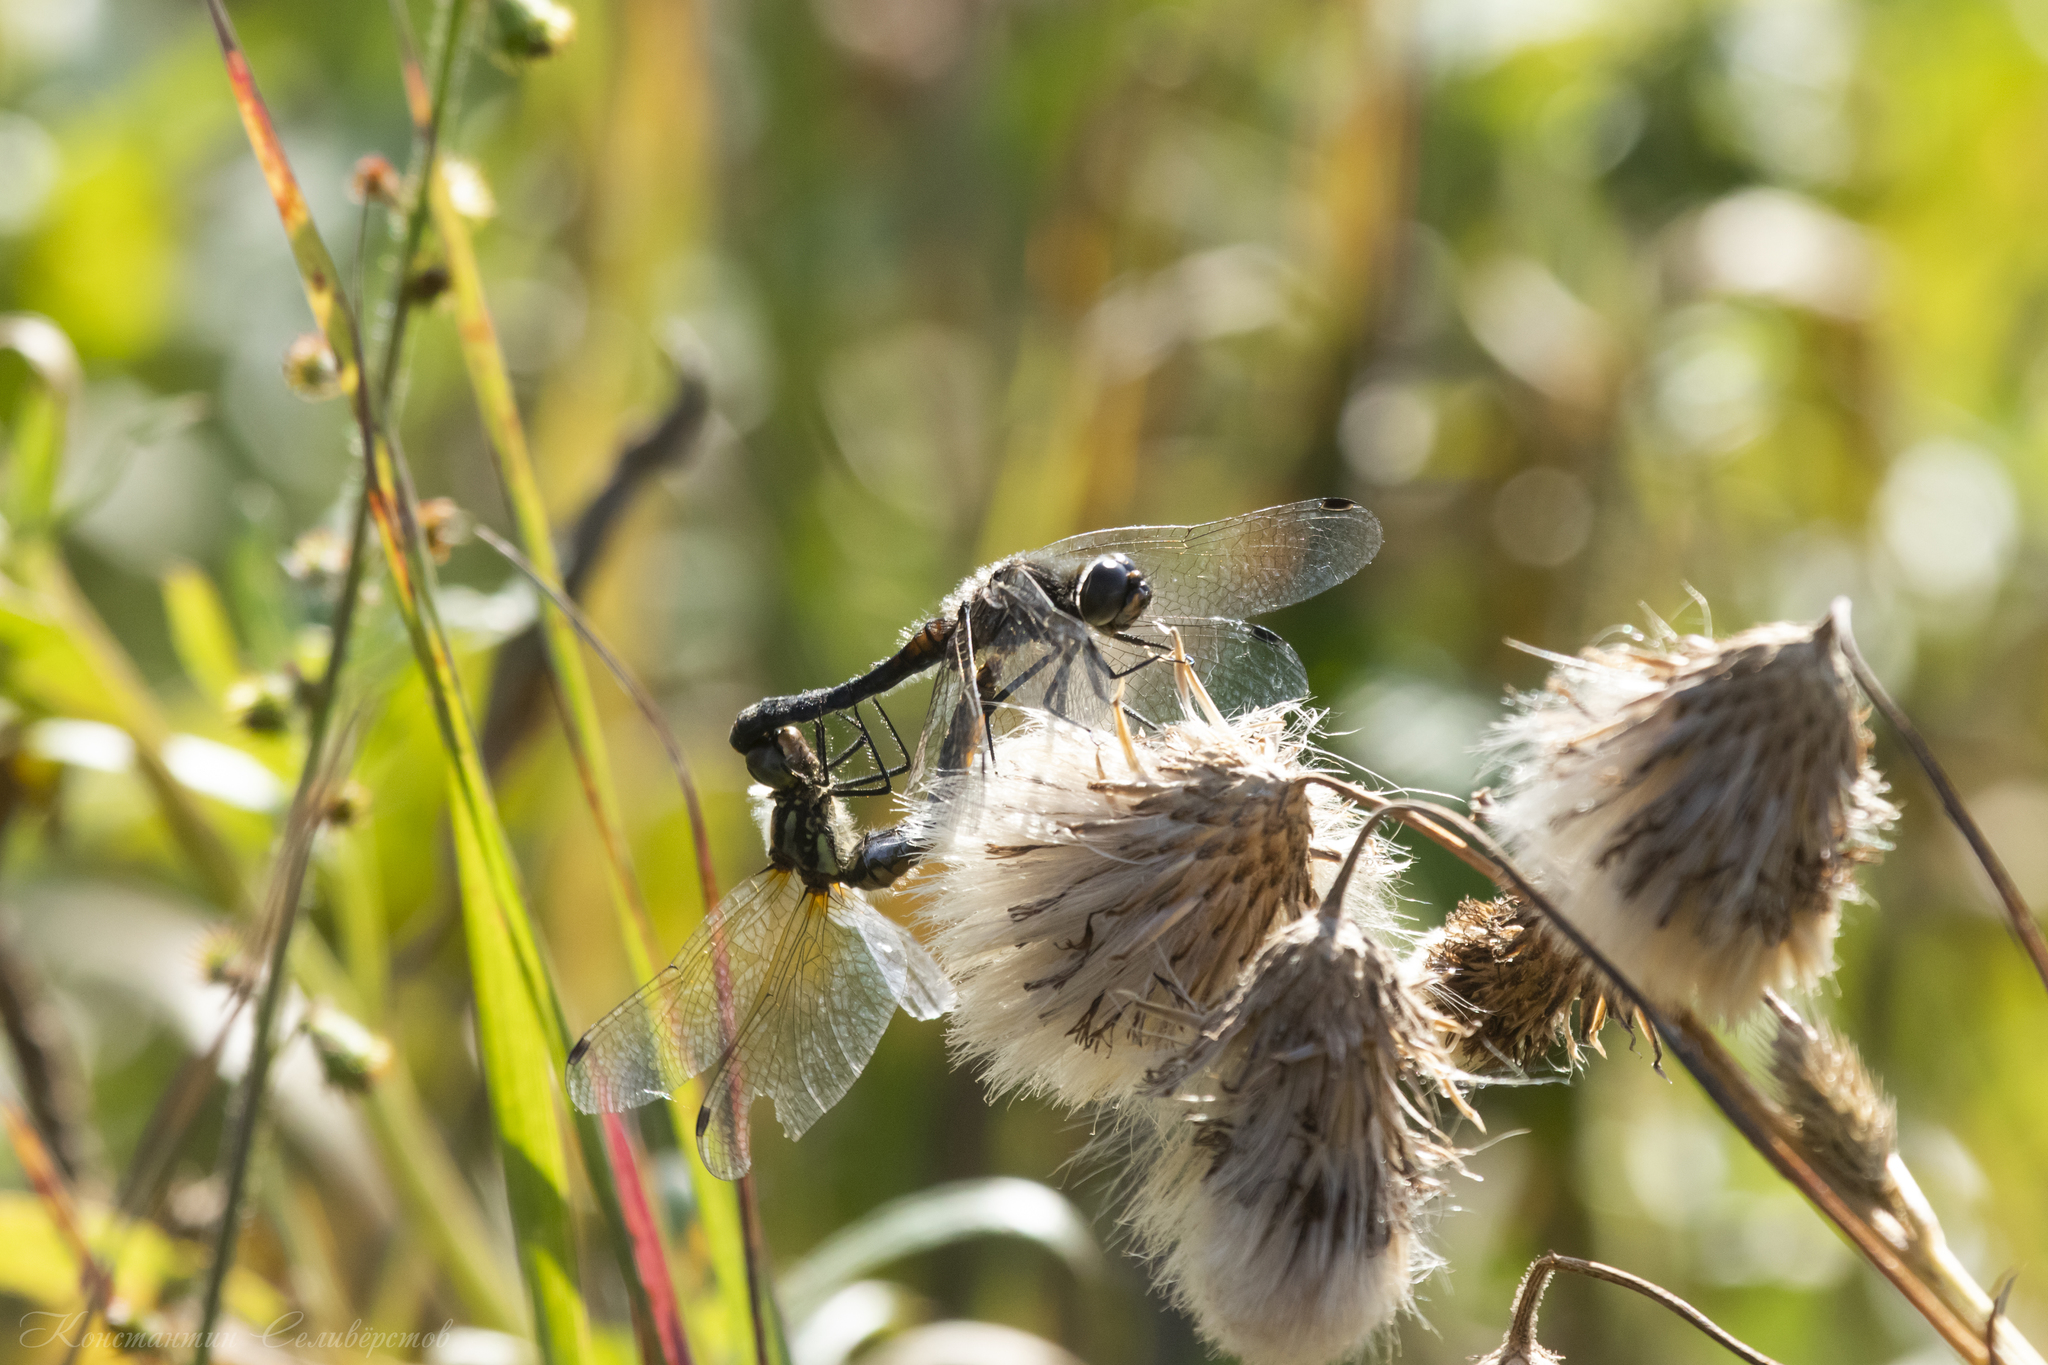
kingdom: Animalia
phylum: Arthropoda
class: Insecta
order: Odonata
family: Libellulidae
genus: Sympetrum
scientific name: Sympetrum danae
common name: Black darter
